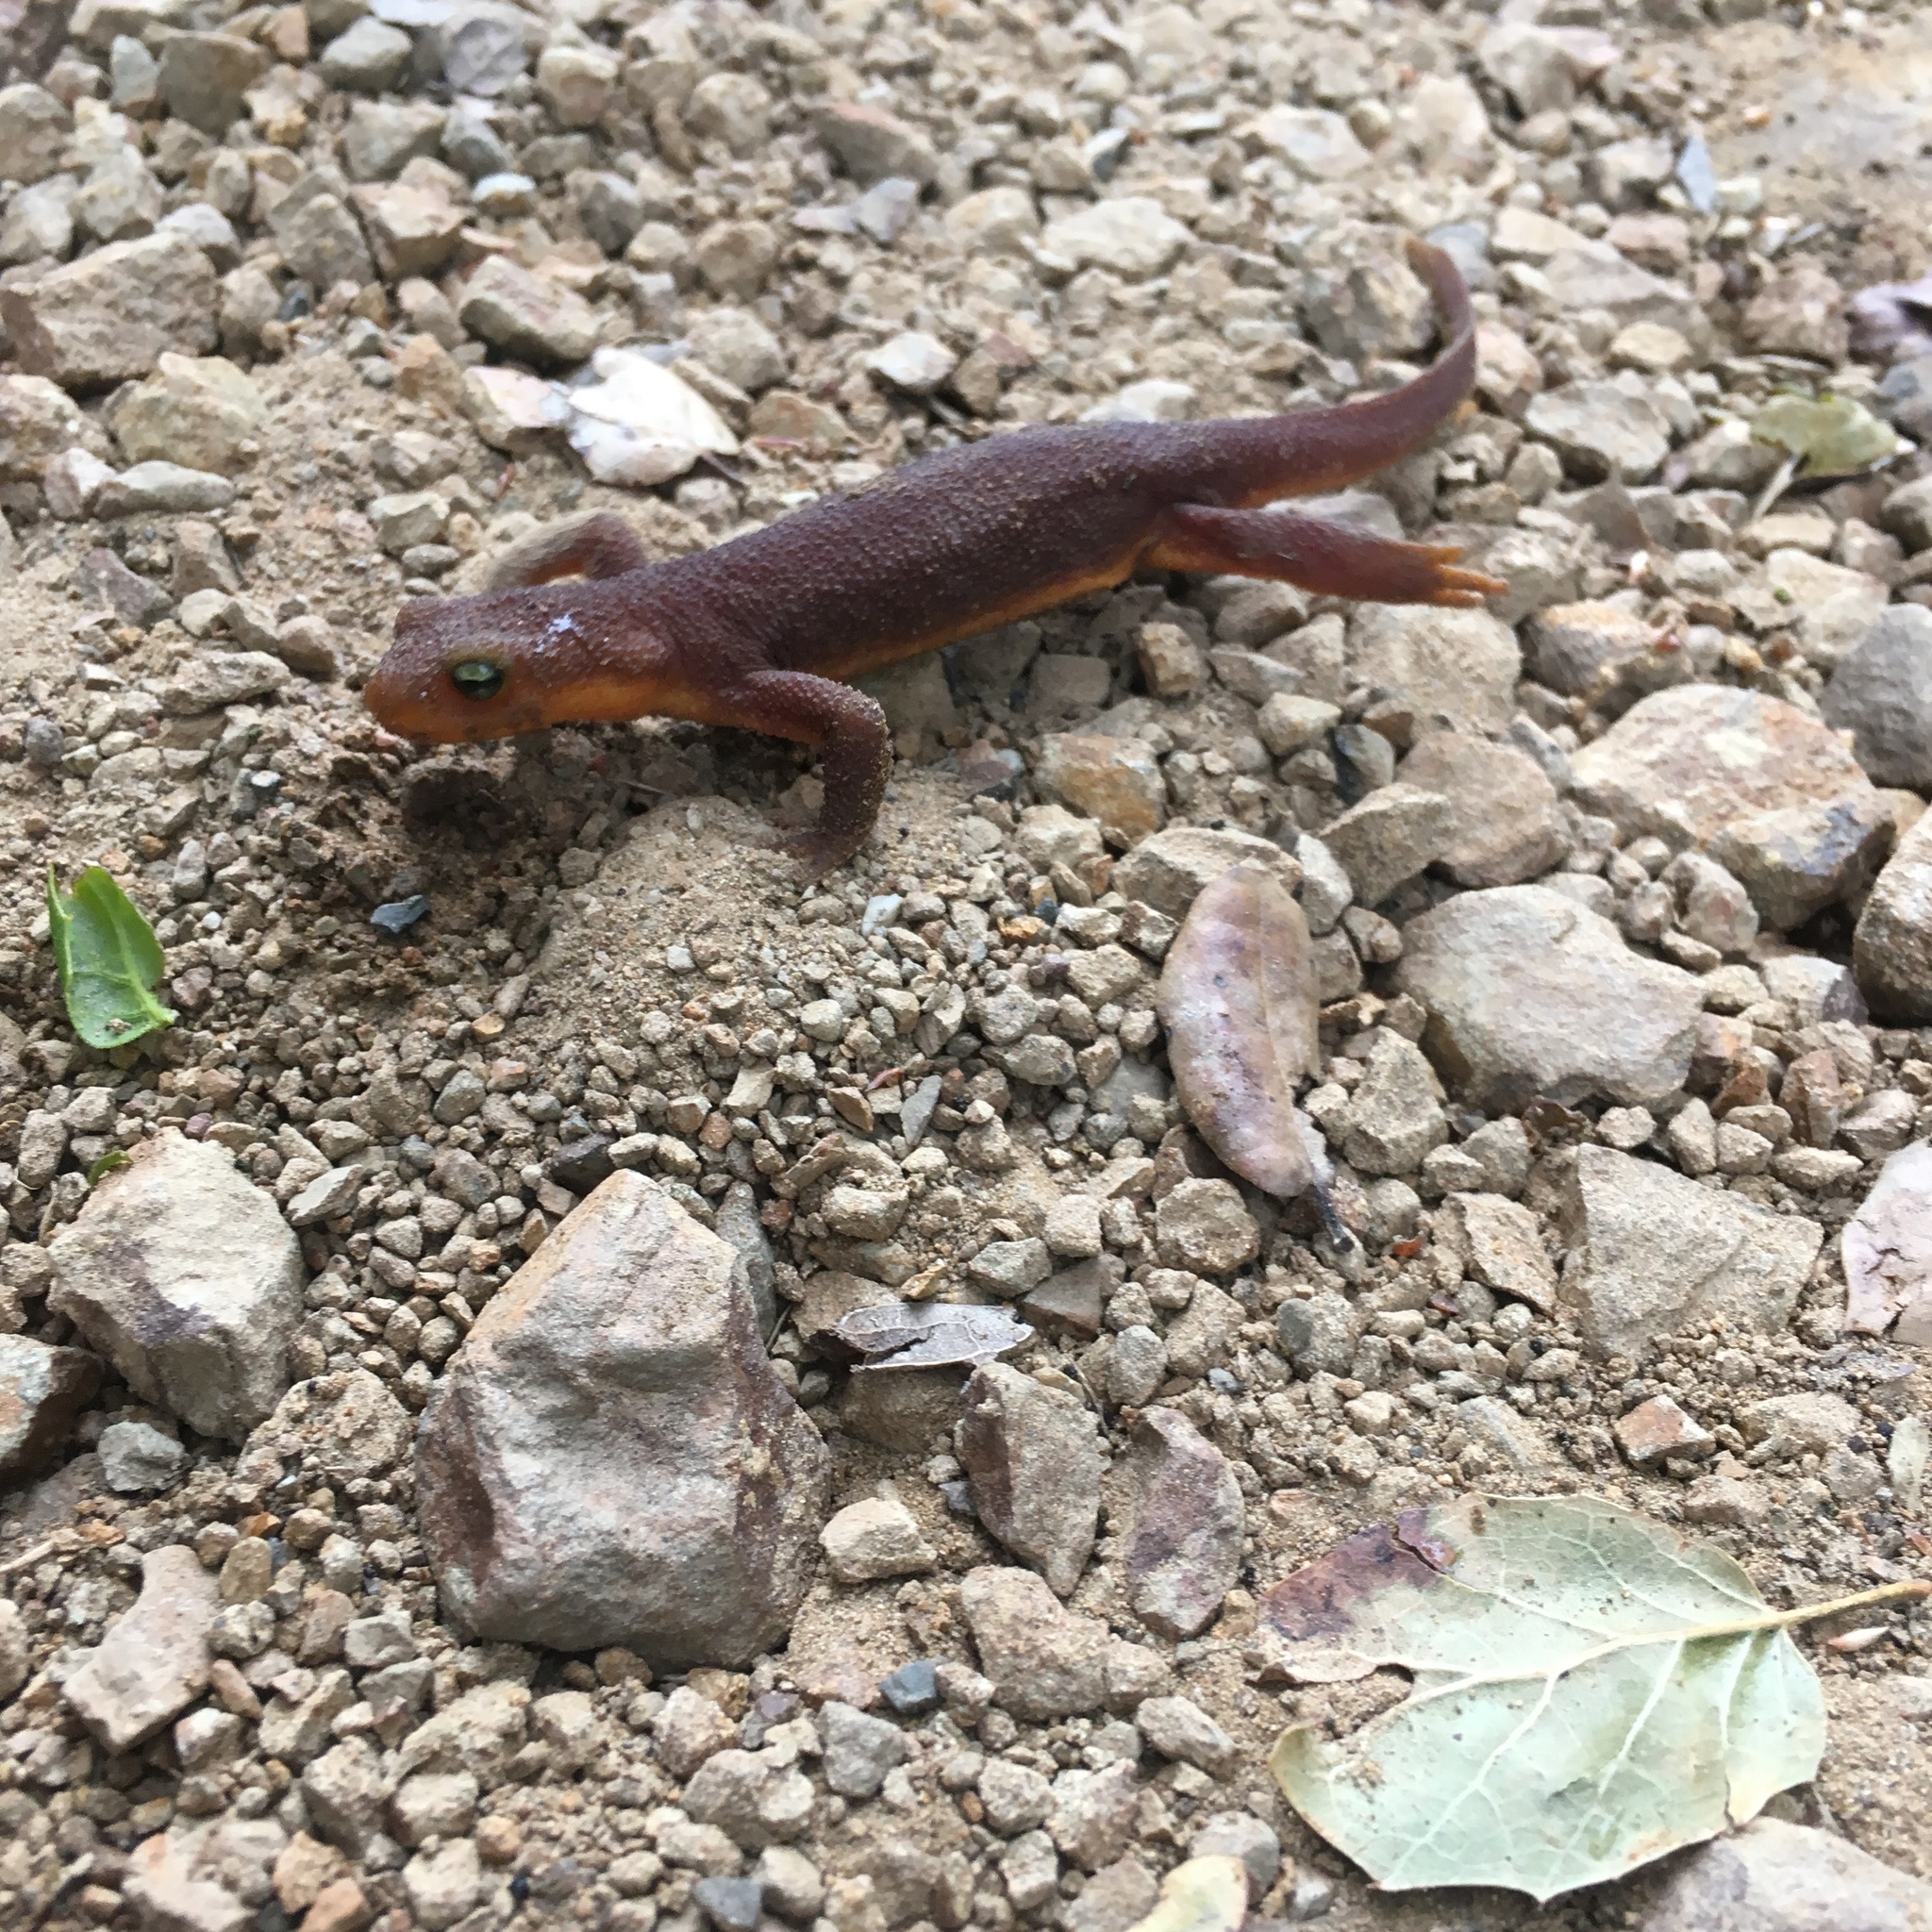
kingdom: Animalia
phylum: Chordata
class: Amphibia
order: Caudata
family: Salamandridae
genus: Taricha
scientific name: Taricha torosa
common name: California newt
